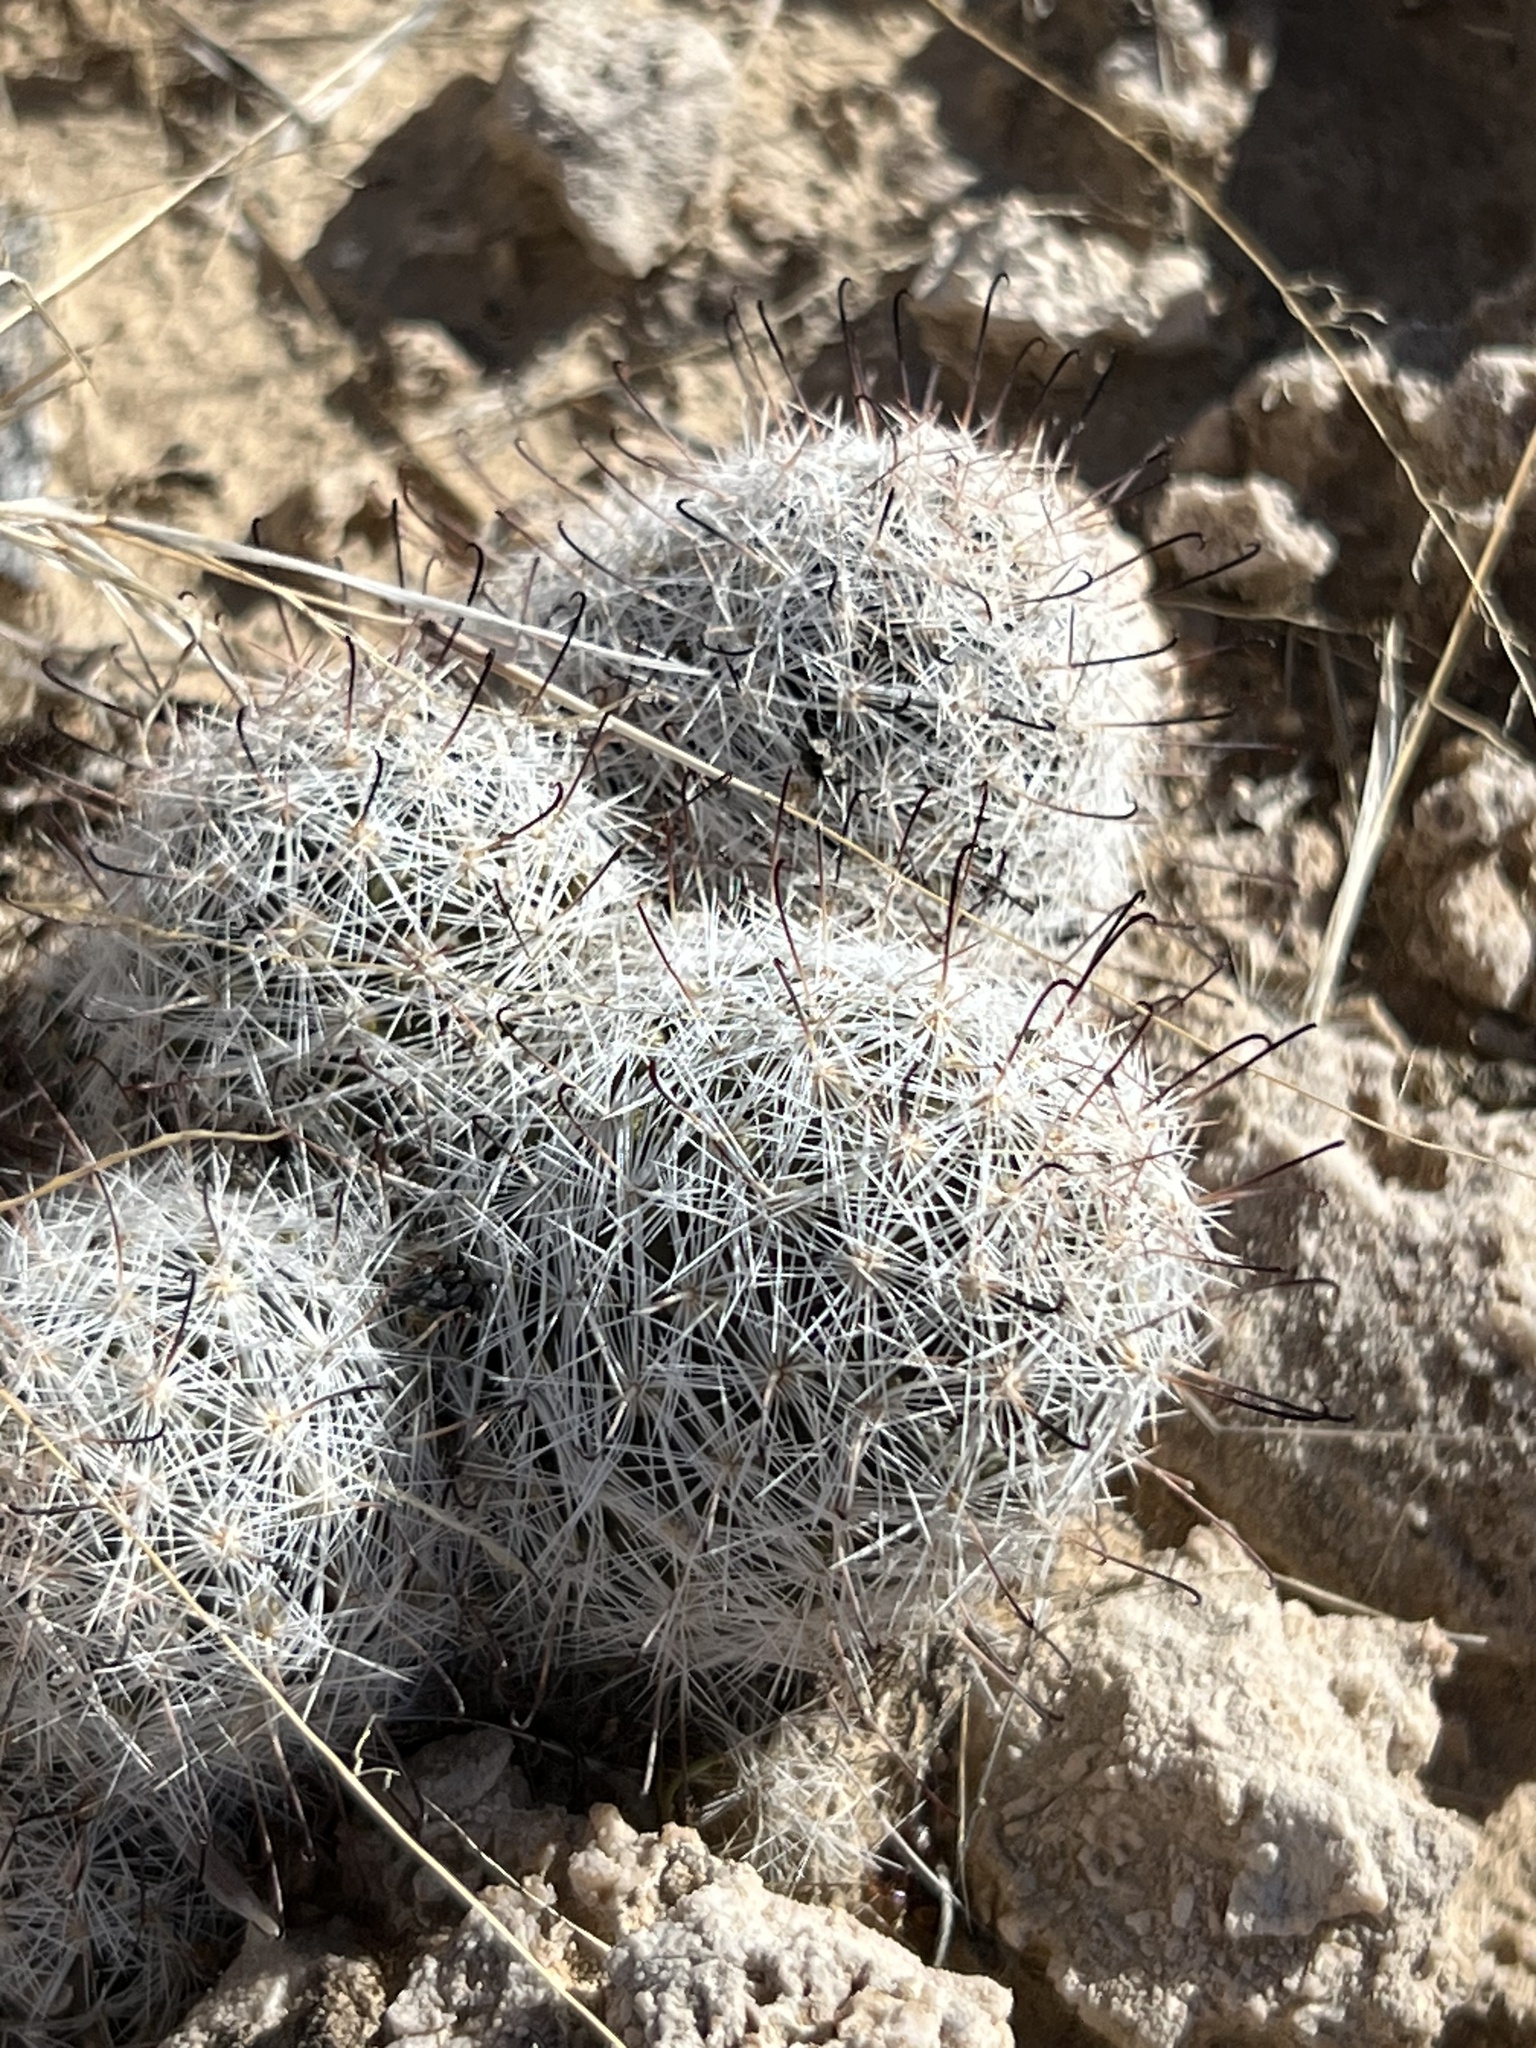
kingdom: Plantae
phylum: Tracheophyta
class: Magnoliopsida
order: Caryophyllales
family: Cactaceae
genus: Cochemiea
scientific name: Cochemiea tetrancistra
